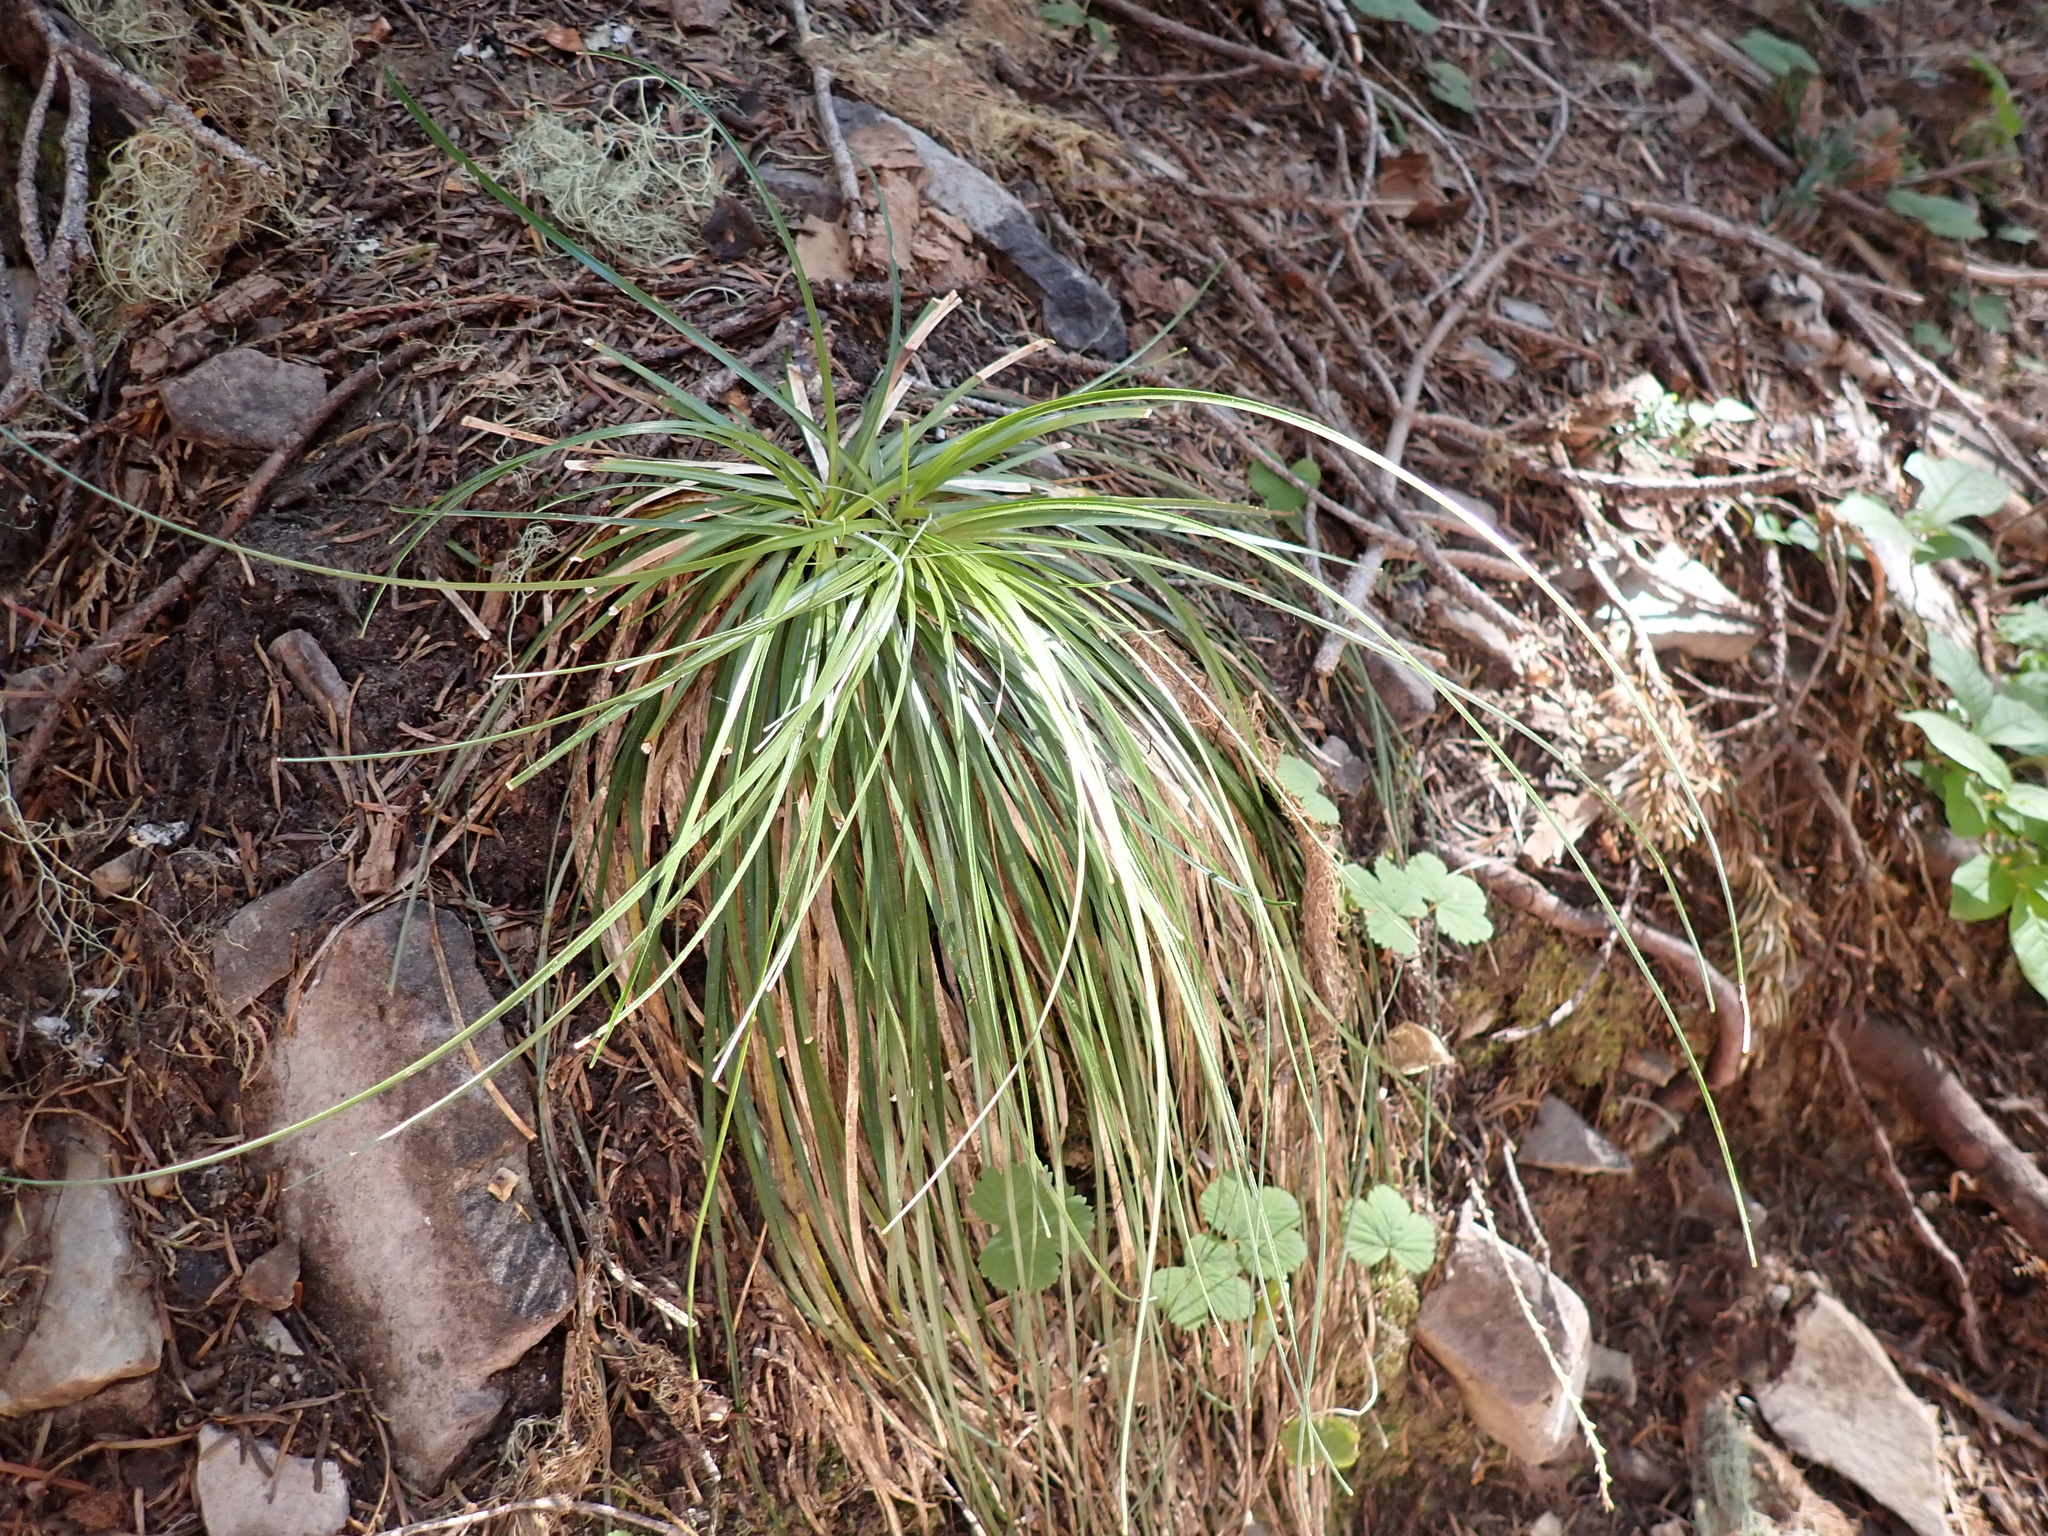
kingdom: Plantae
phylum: Tracheophyta
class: Liliopsida
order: Liliales
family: Melanthiaceae
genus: Xerophyllum
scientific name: Xerophyllum tenax
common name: Bear-grass
